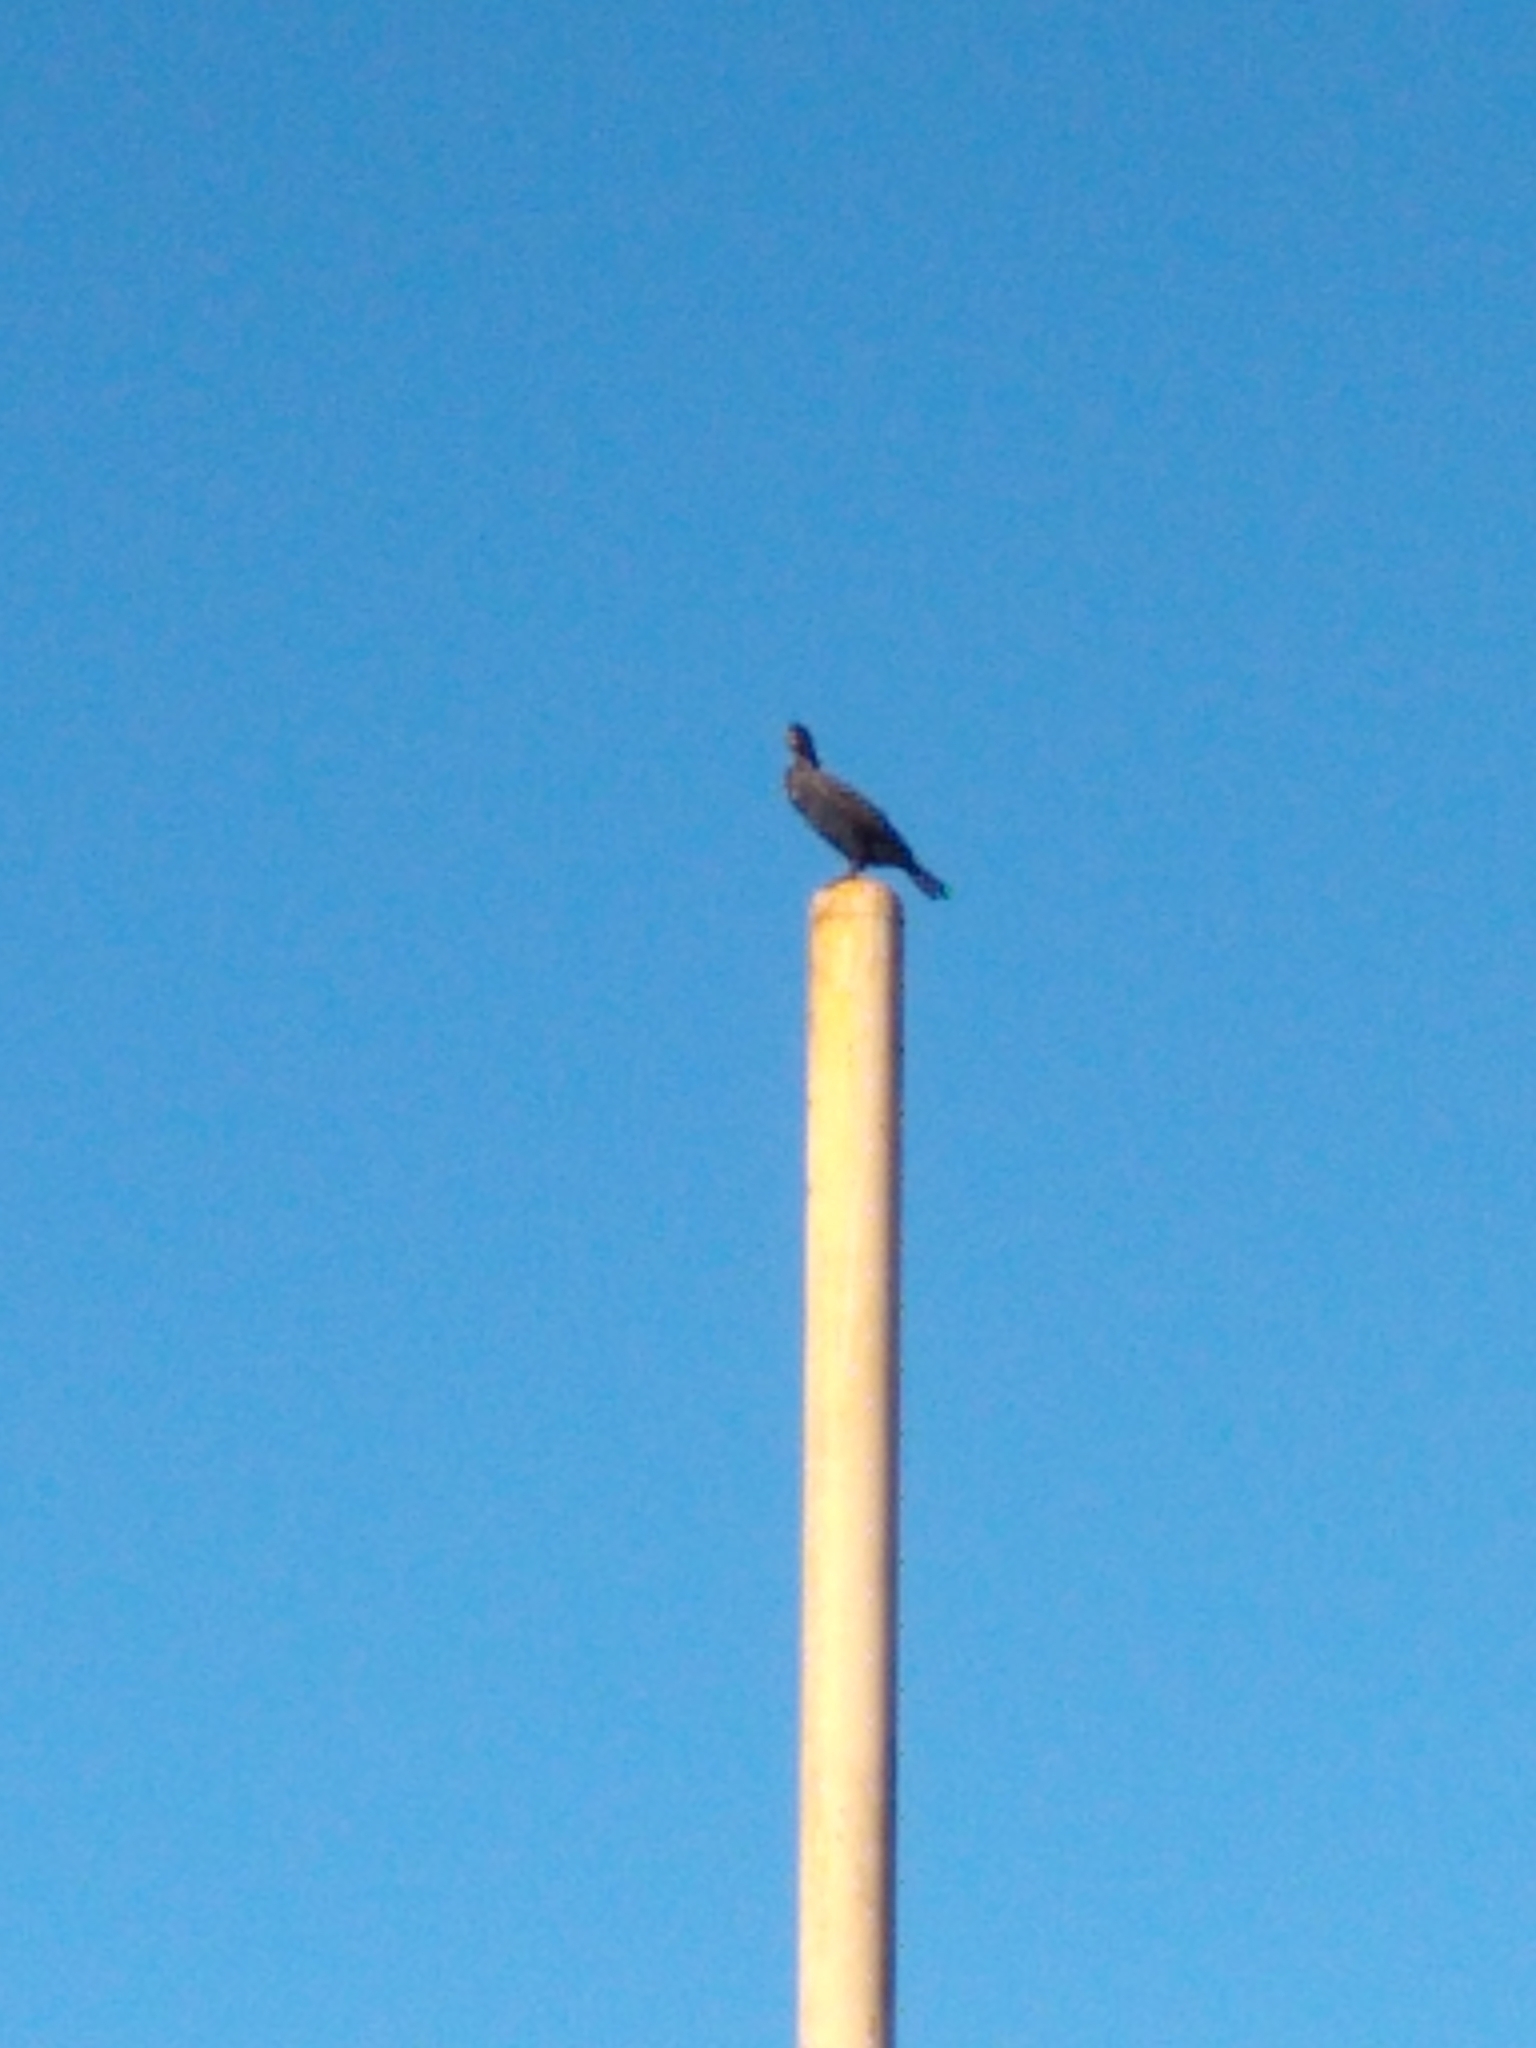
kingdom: Animalia
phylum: Chordata
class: Aves
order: Suliformes
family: Phalacrocoracidae
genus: Phalacrocorax
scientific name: Phalacrocorax auritus
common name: Double-crested cormorant
